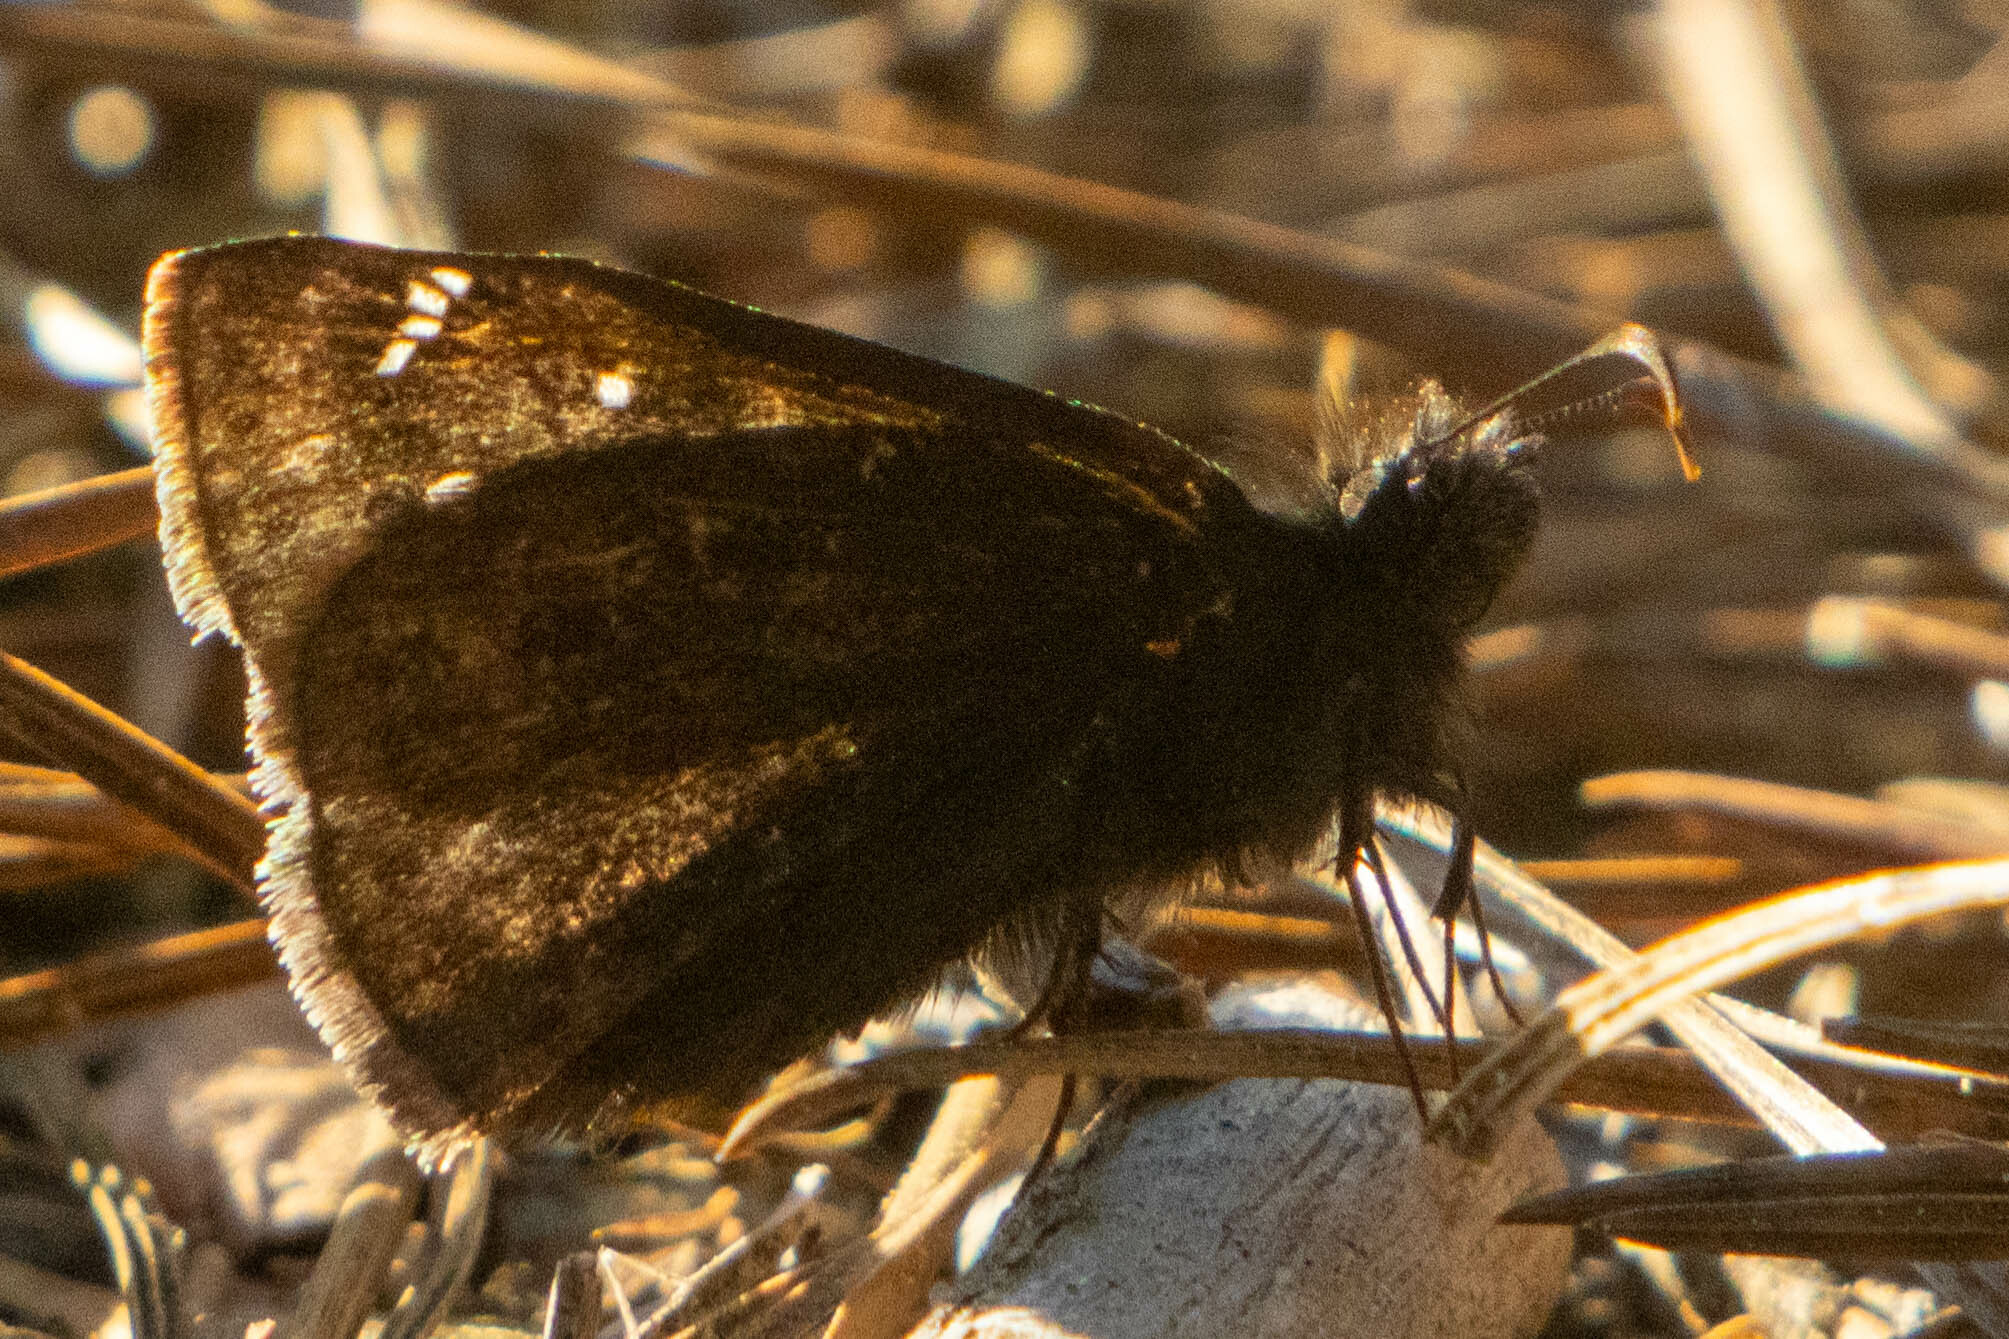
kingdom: Animalia
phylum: Arthropoda
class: Insecta
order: Lepidoptera
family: Hesperiidae
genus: Erynnis
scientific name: Erynnis juvenalis
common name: Juvenal's duskywing
